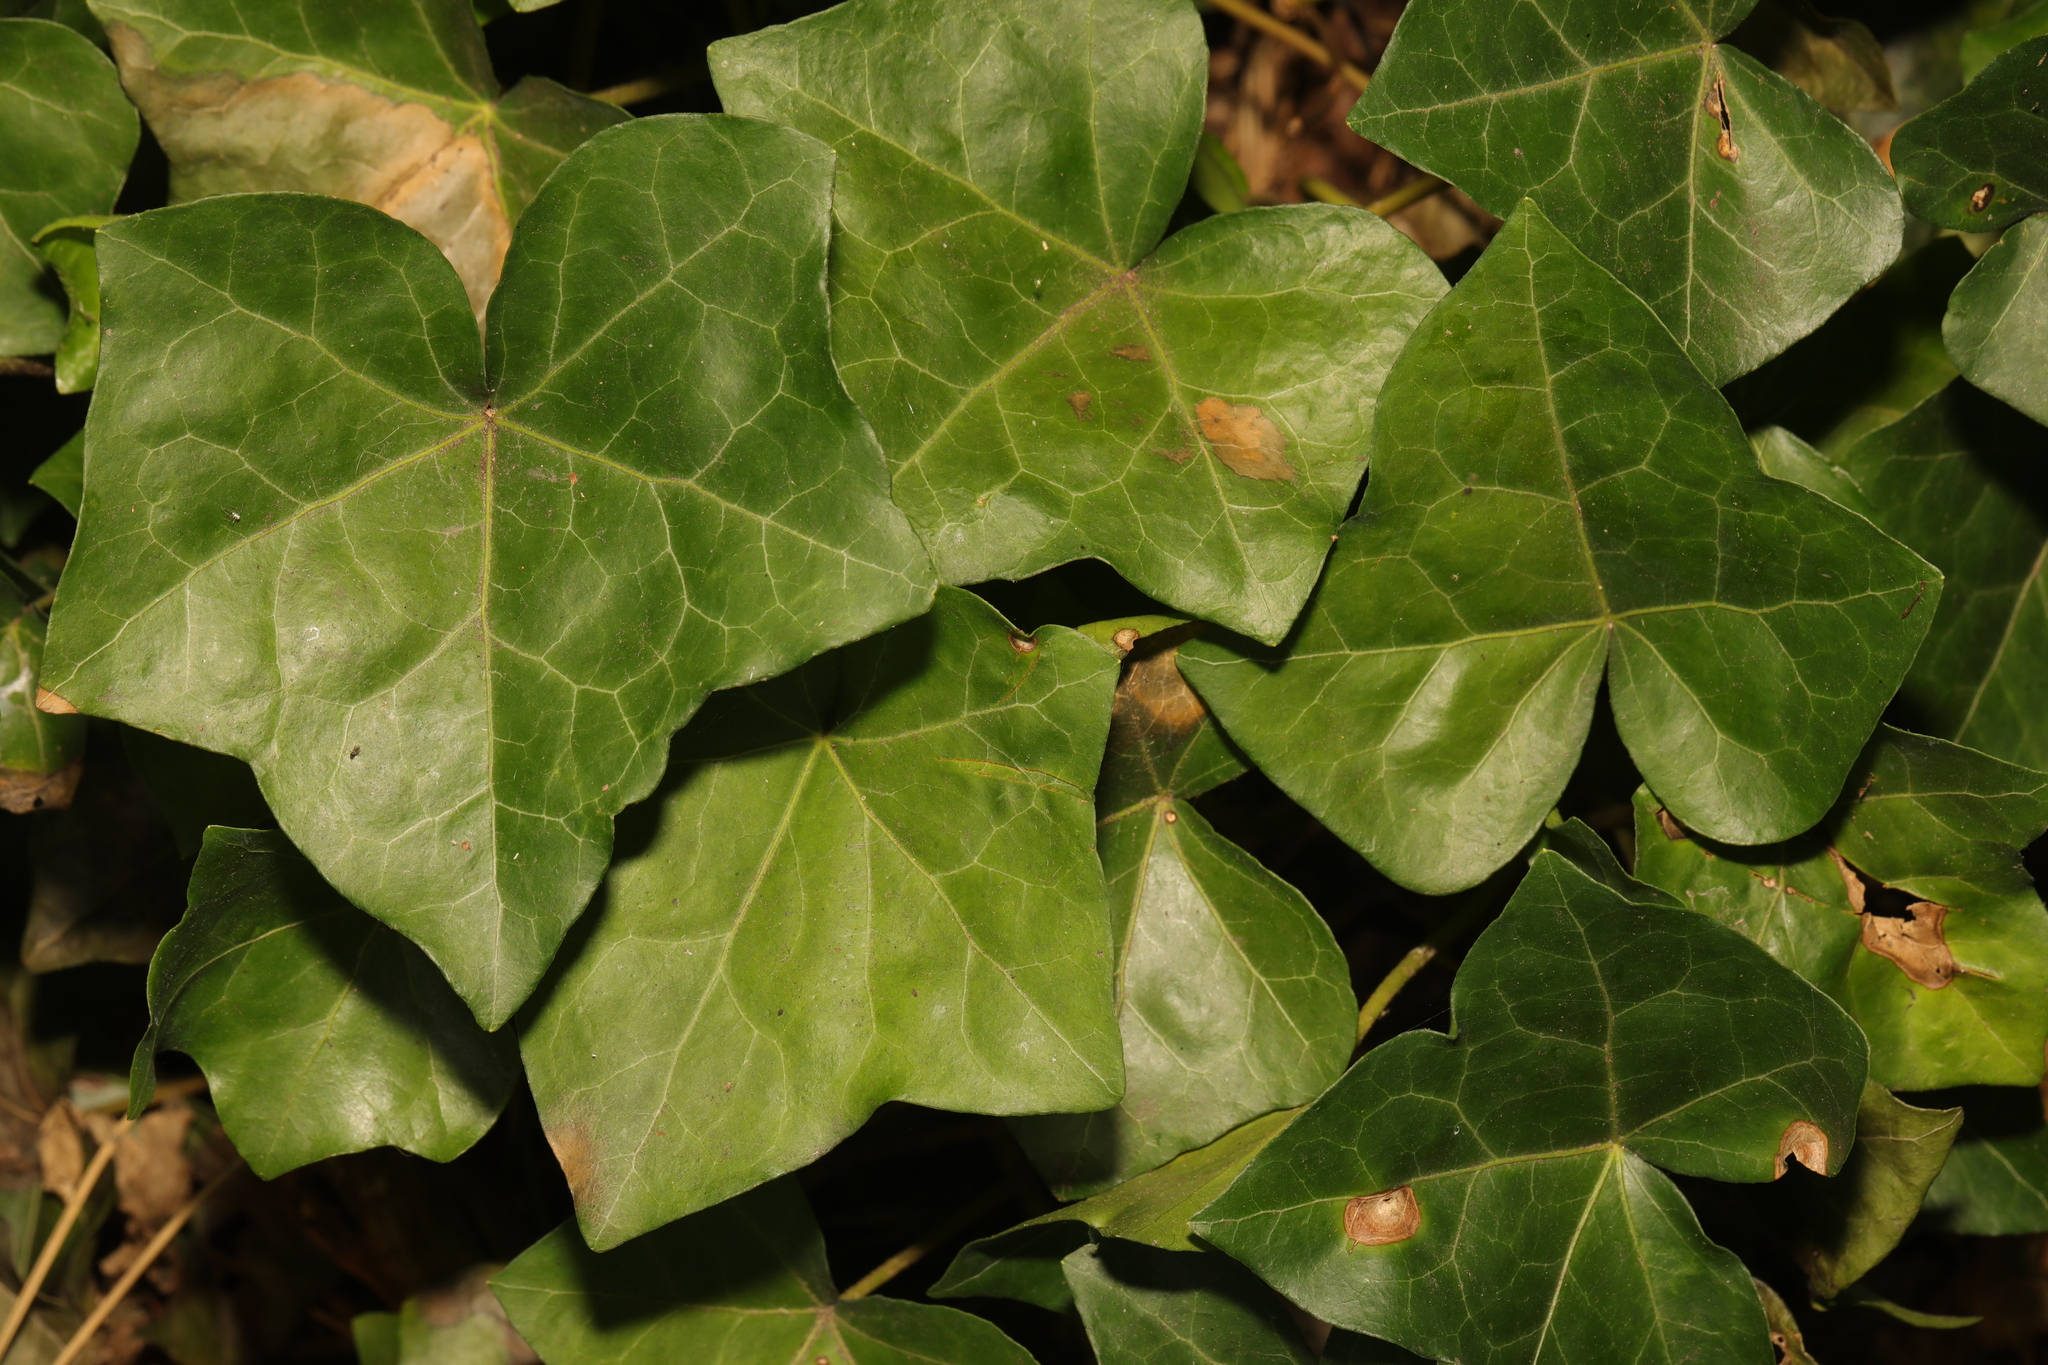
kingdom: Plantae
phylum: Tracheophyta
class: Magnoliopsida
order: Apiales
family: Araliaceae
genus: Hedera
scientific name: Hedera helix
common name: Ivy
